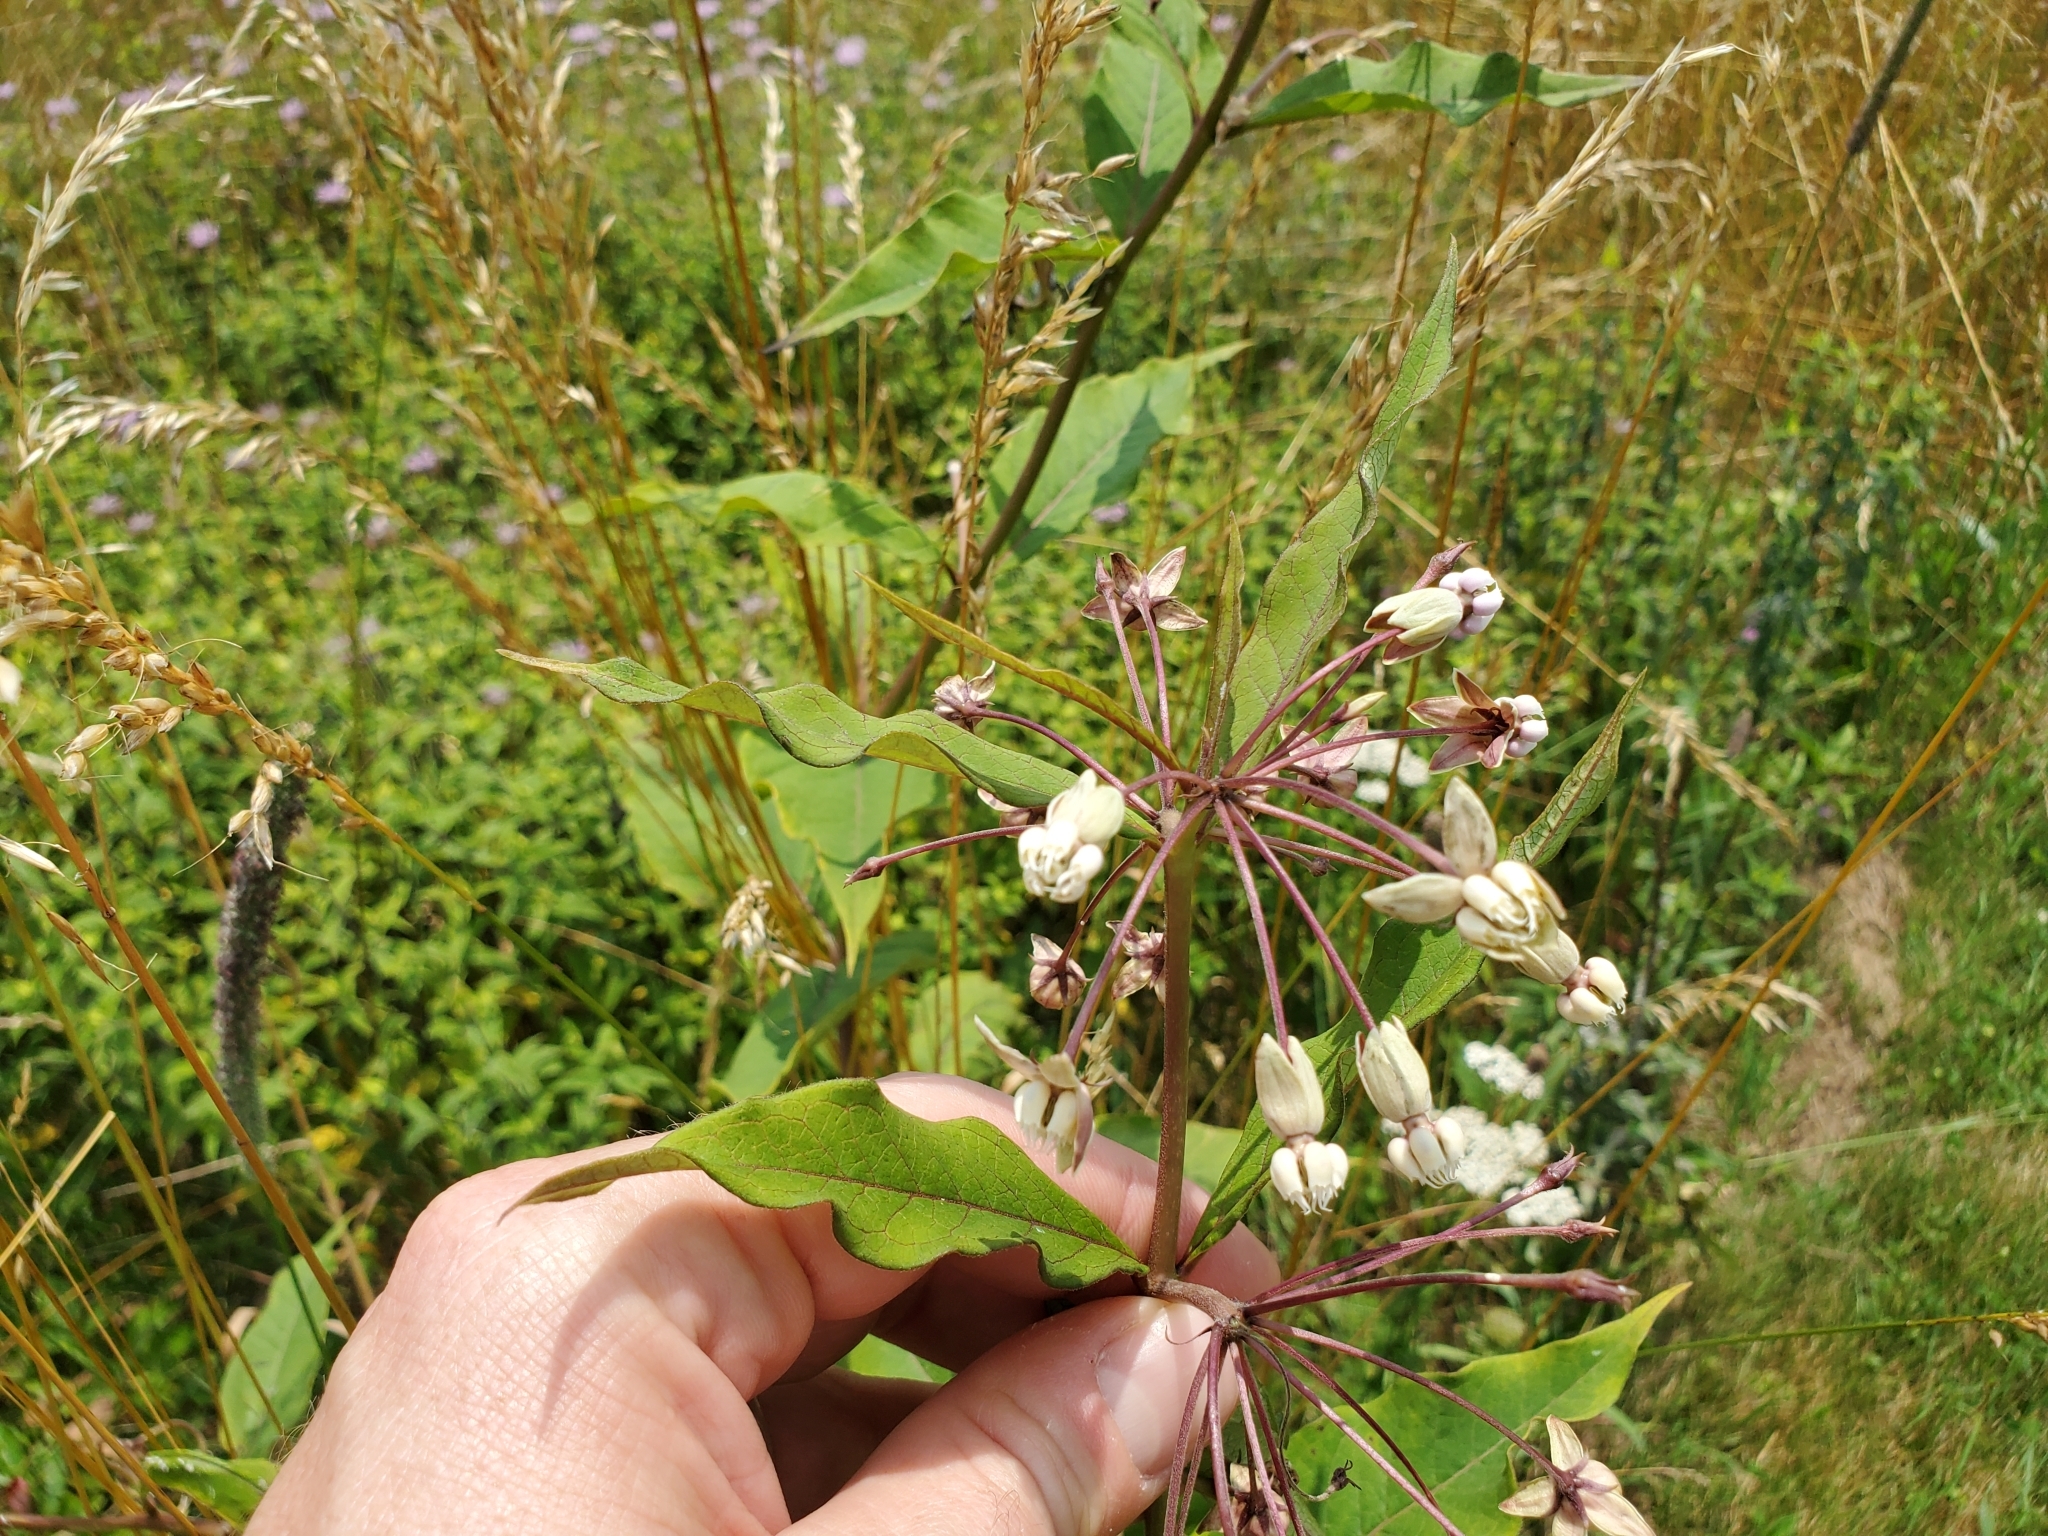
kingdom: Plantae
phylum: Tracheophyta
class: Magnoliopsida
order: Gentianales
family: Apocynaceae
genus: Asclepias
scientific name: Asclepias exaltata
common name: Poke milkweed
